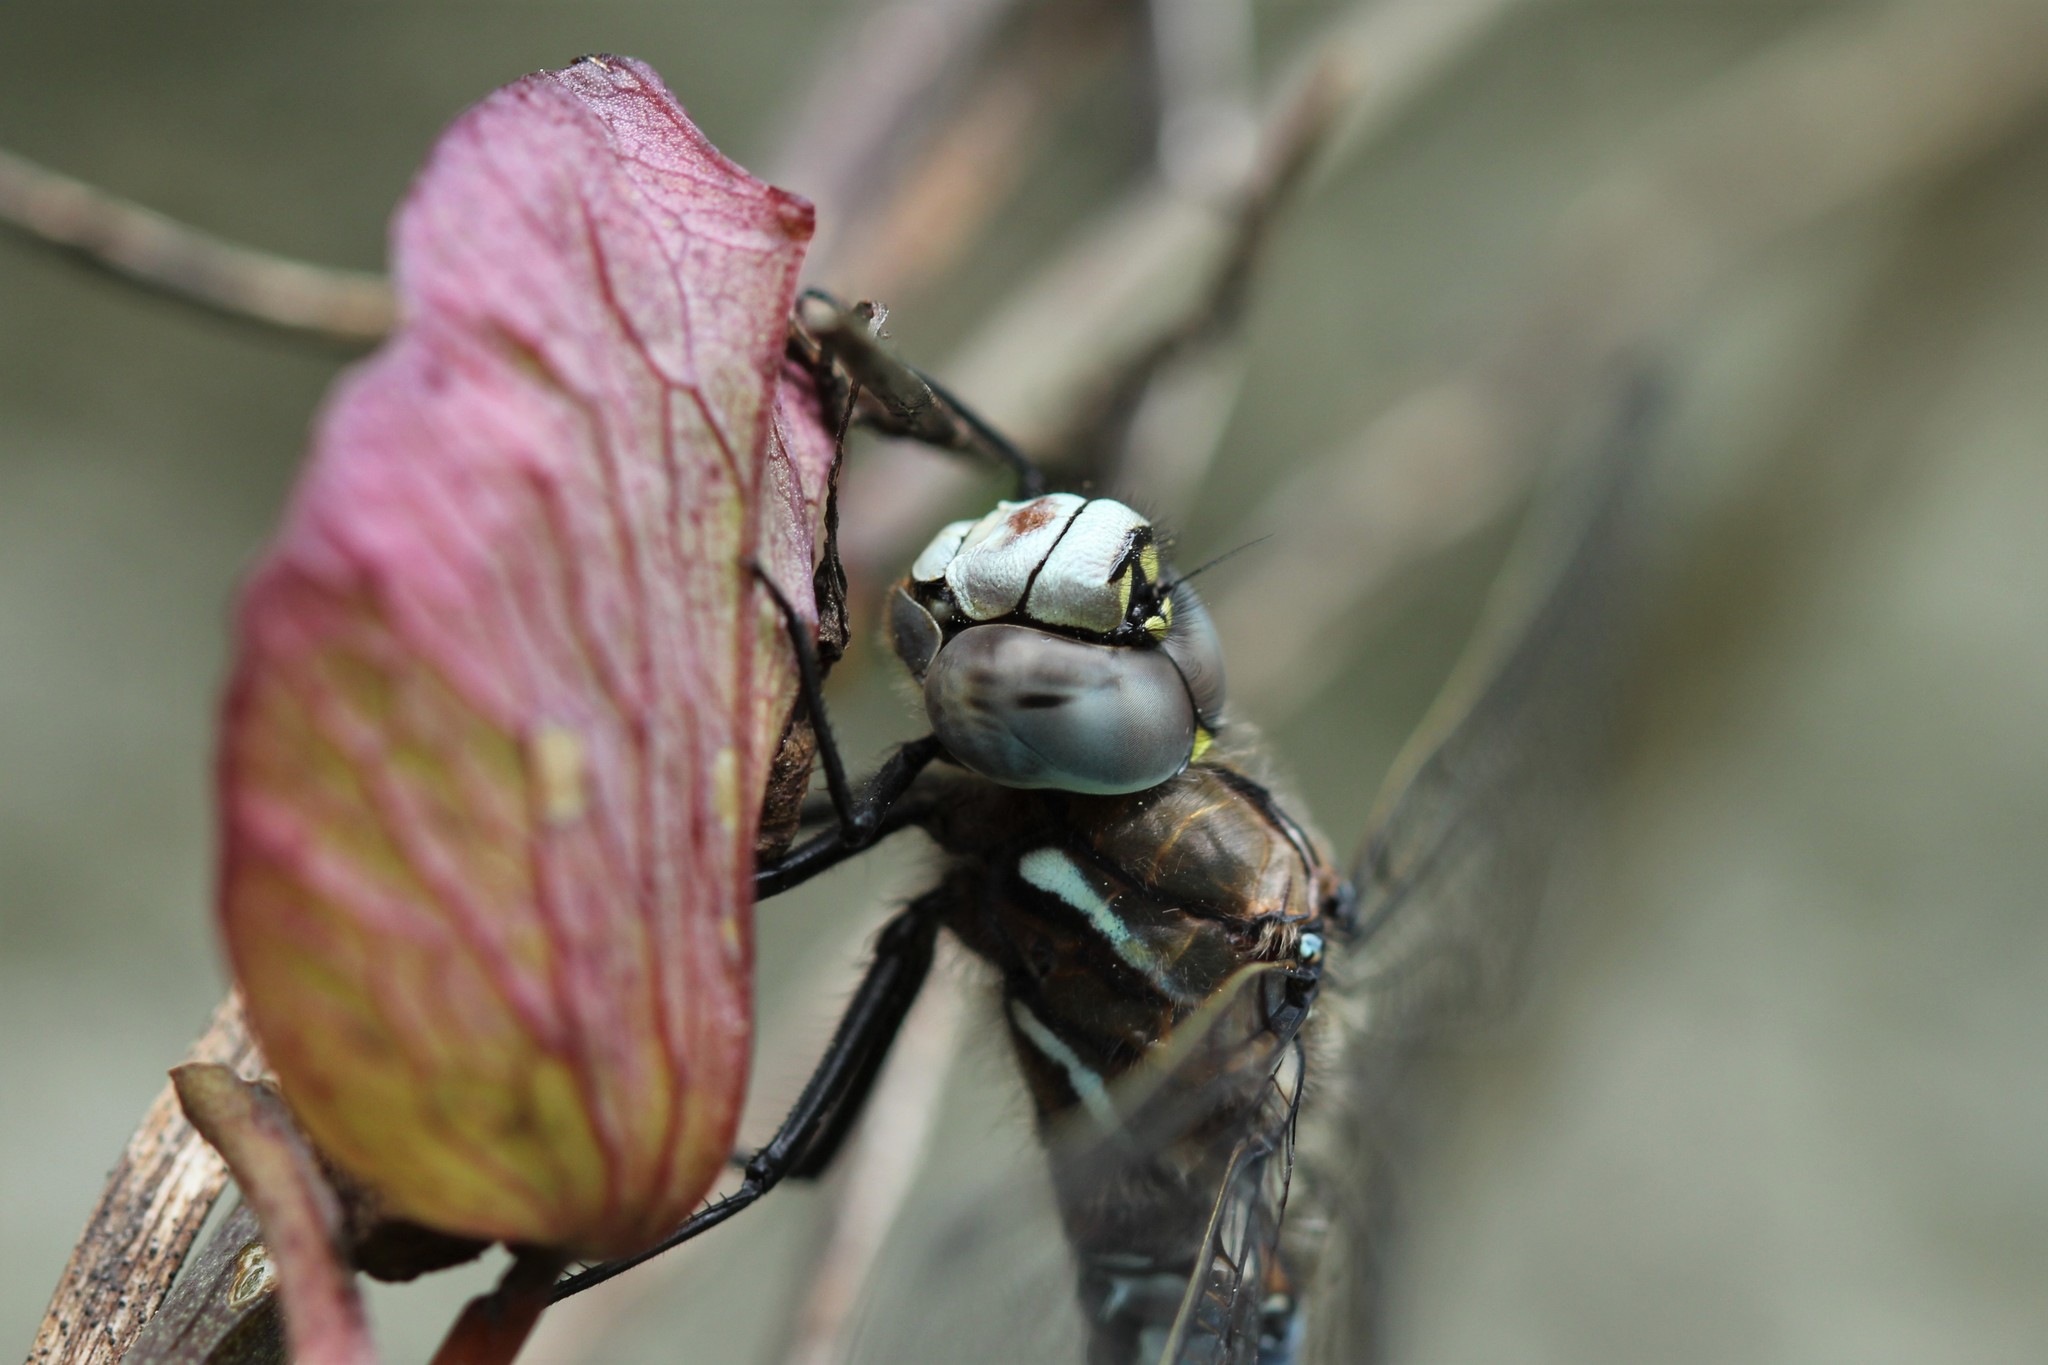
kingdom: Animalia
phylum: Arthropoda
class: Insecta
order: Odonata
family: Aeshnidae
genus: Rhionaeschna
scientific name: Rhionaeschna californica
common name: California darner
